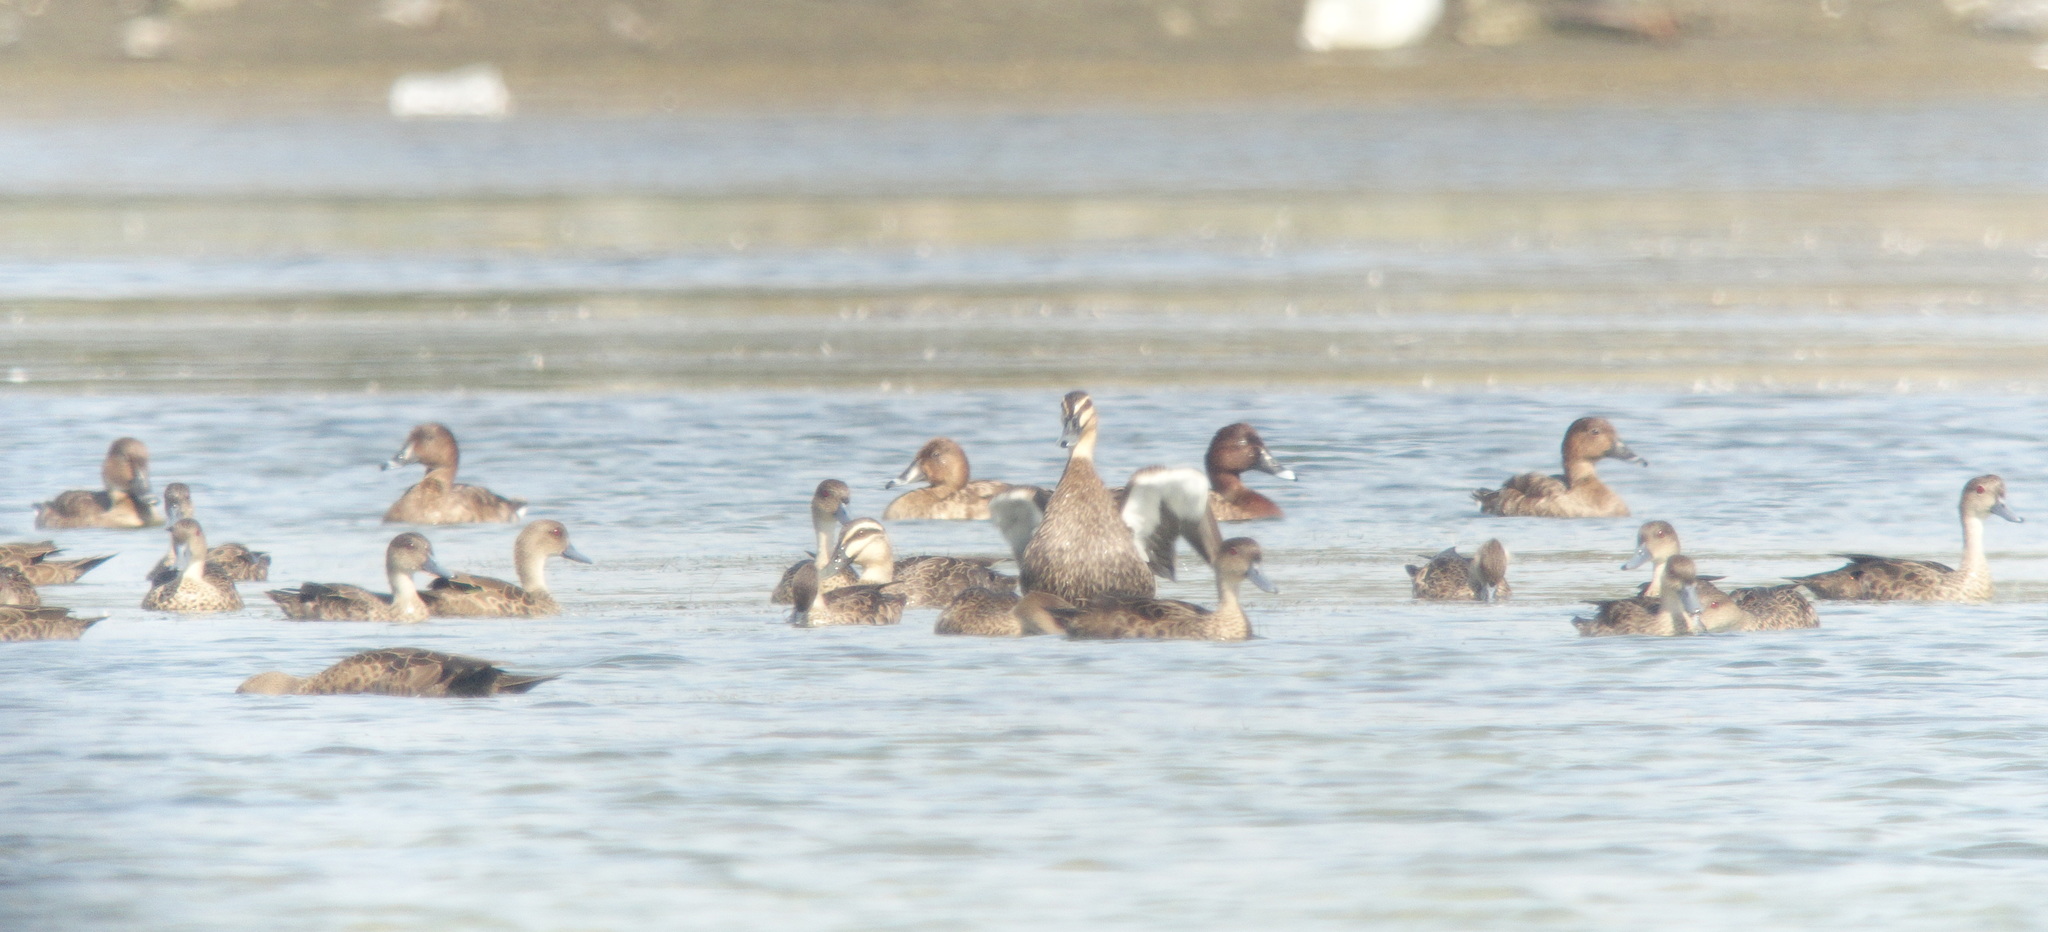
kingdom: Animalia
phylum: Chordata
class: Aves
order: Anseriformes
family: Anatidae
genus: Anas
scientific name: Anas superciliosa
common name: Pacific black duck
